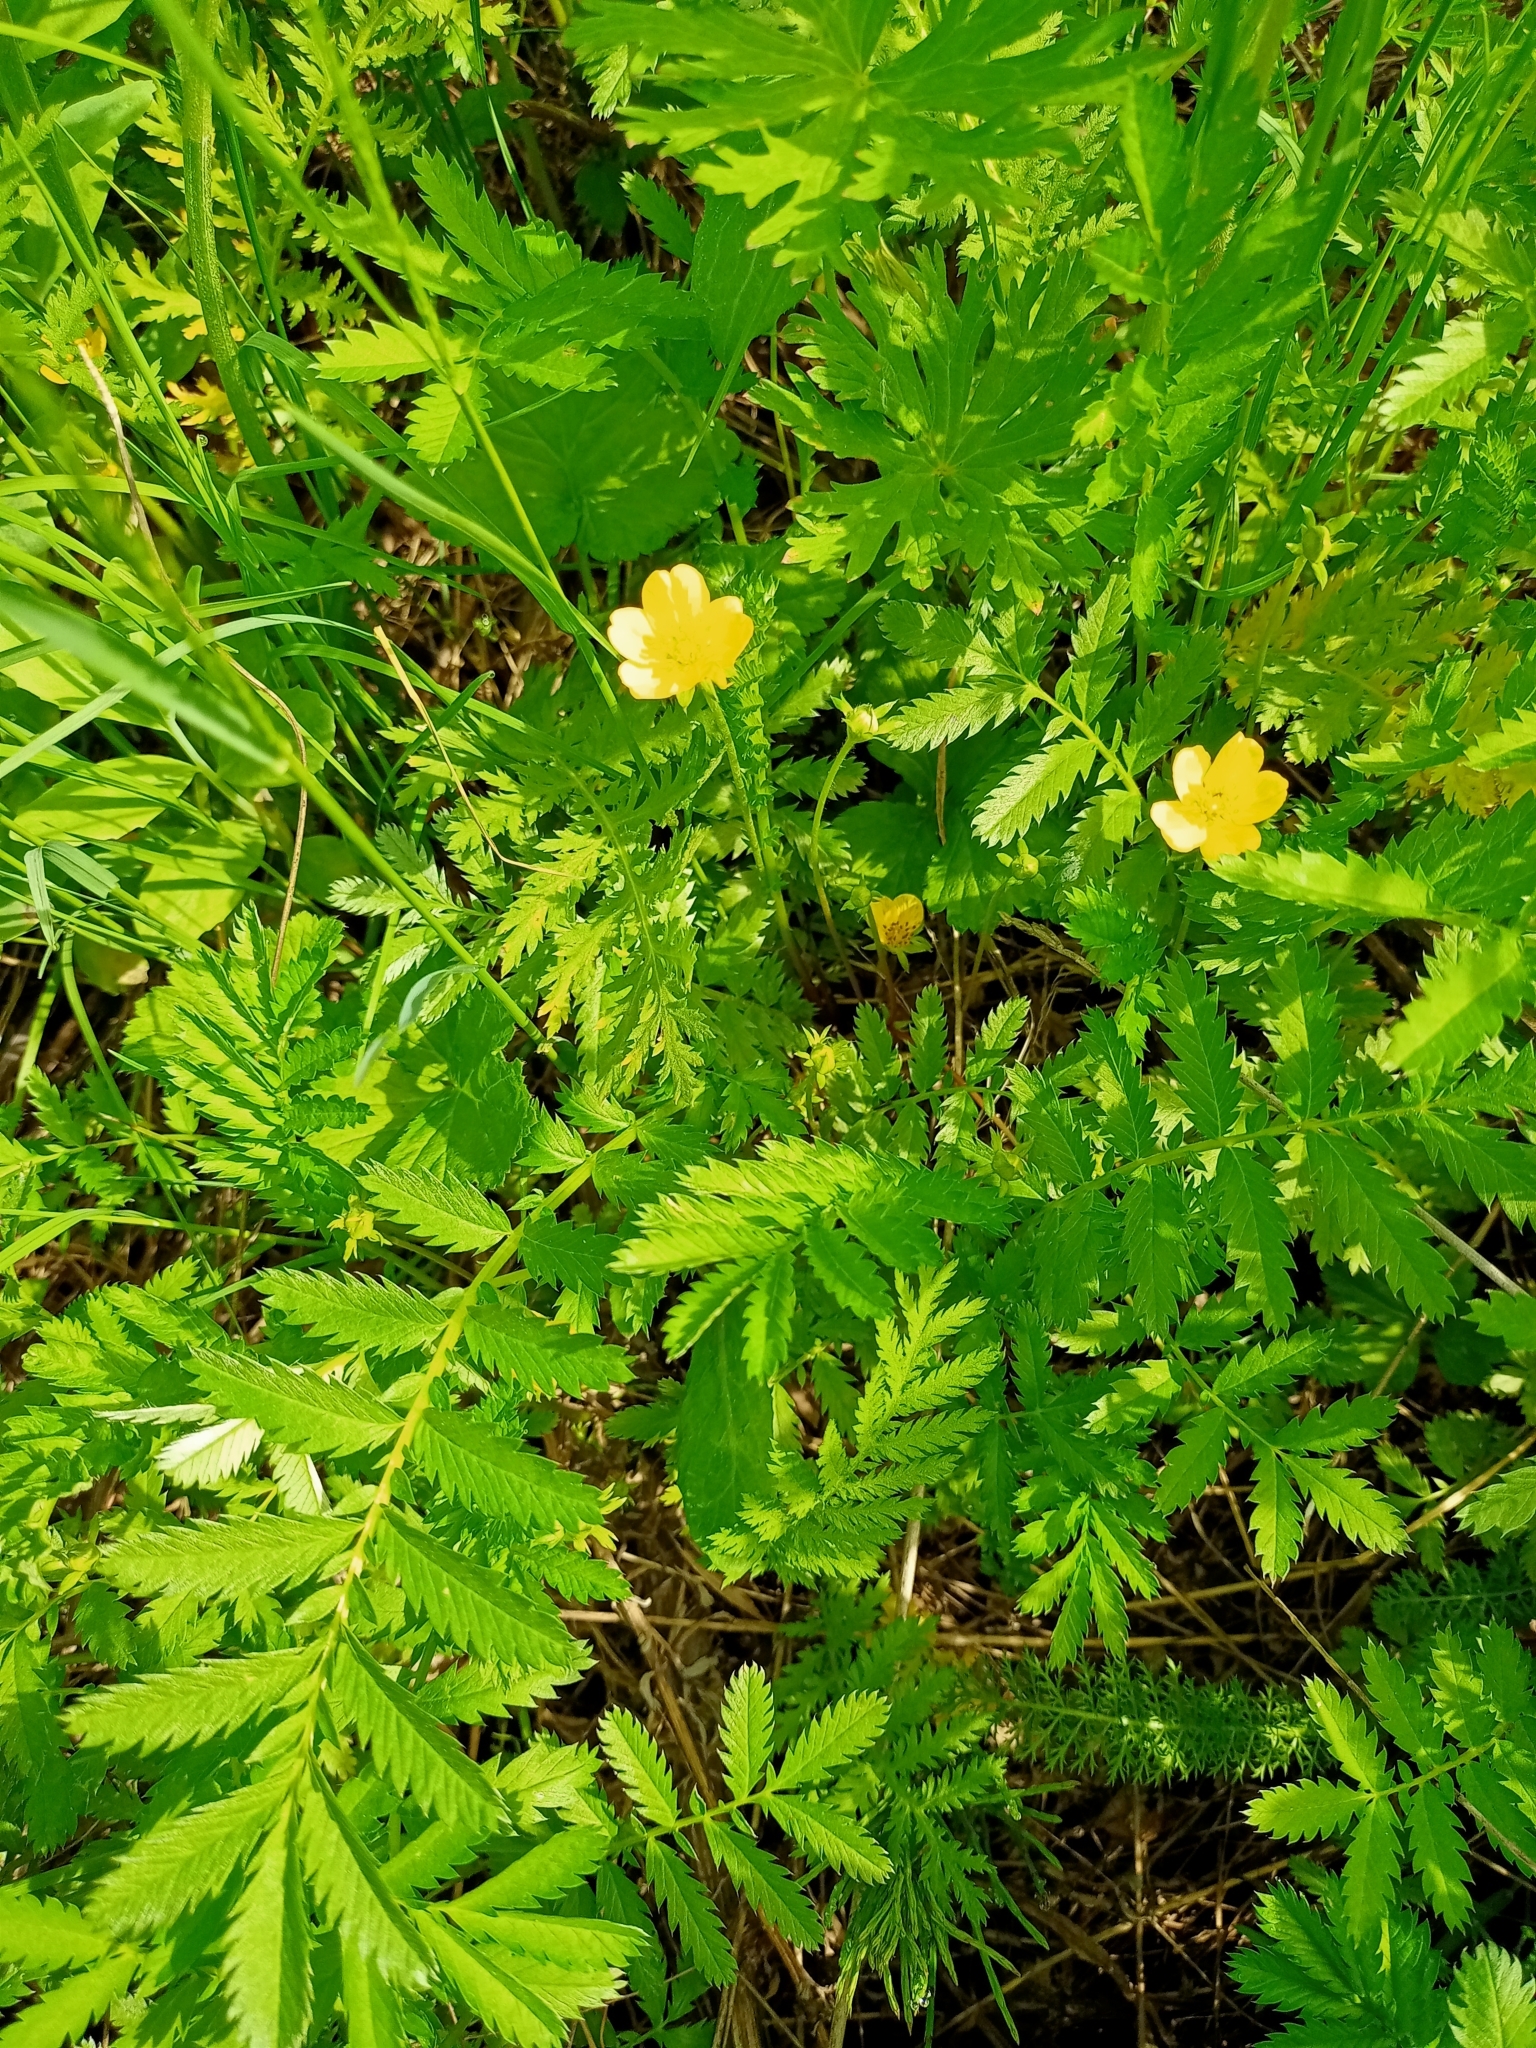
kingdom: Plantae
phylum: Tracheophyta
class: Magnoliopsida
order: Rosales
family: Rosaceae
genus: Argentina
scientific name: Argentina anserina
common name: Common silverweed
